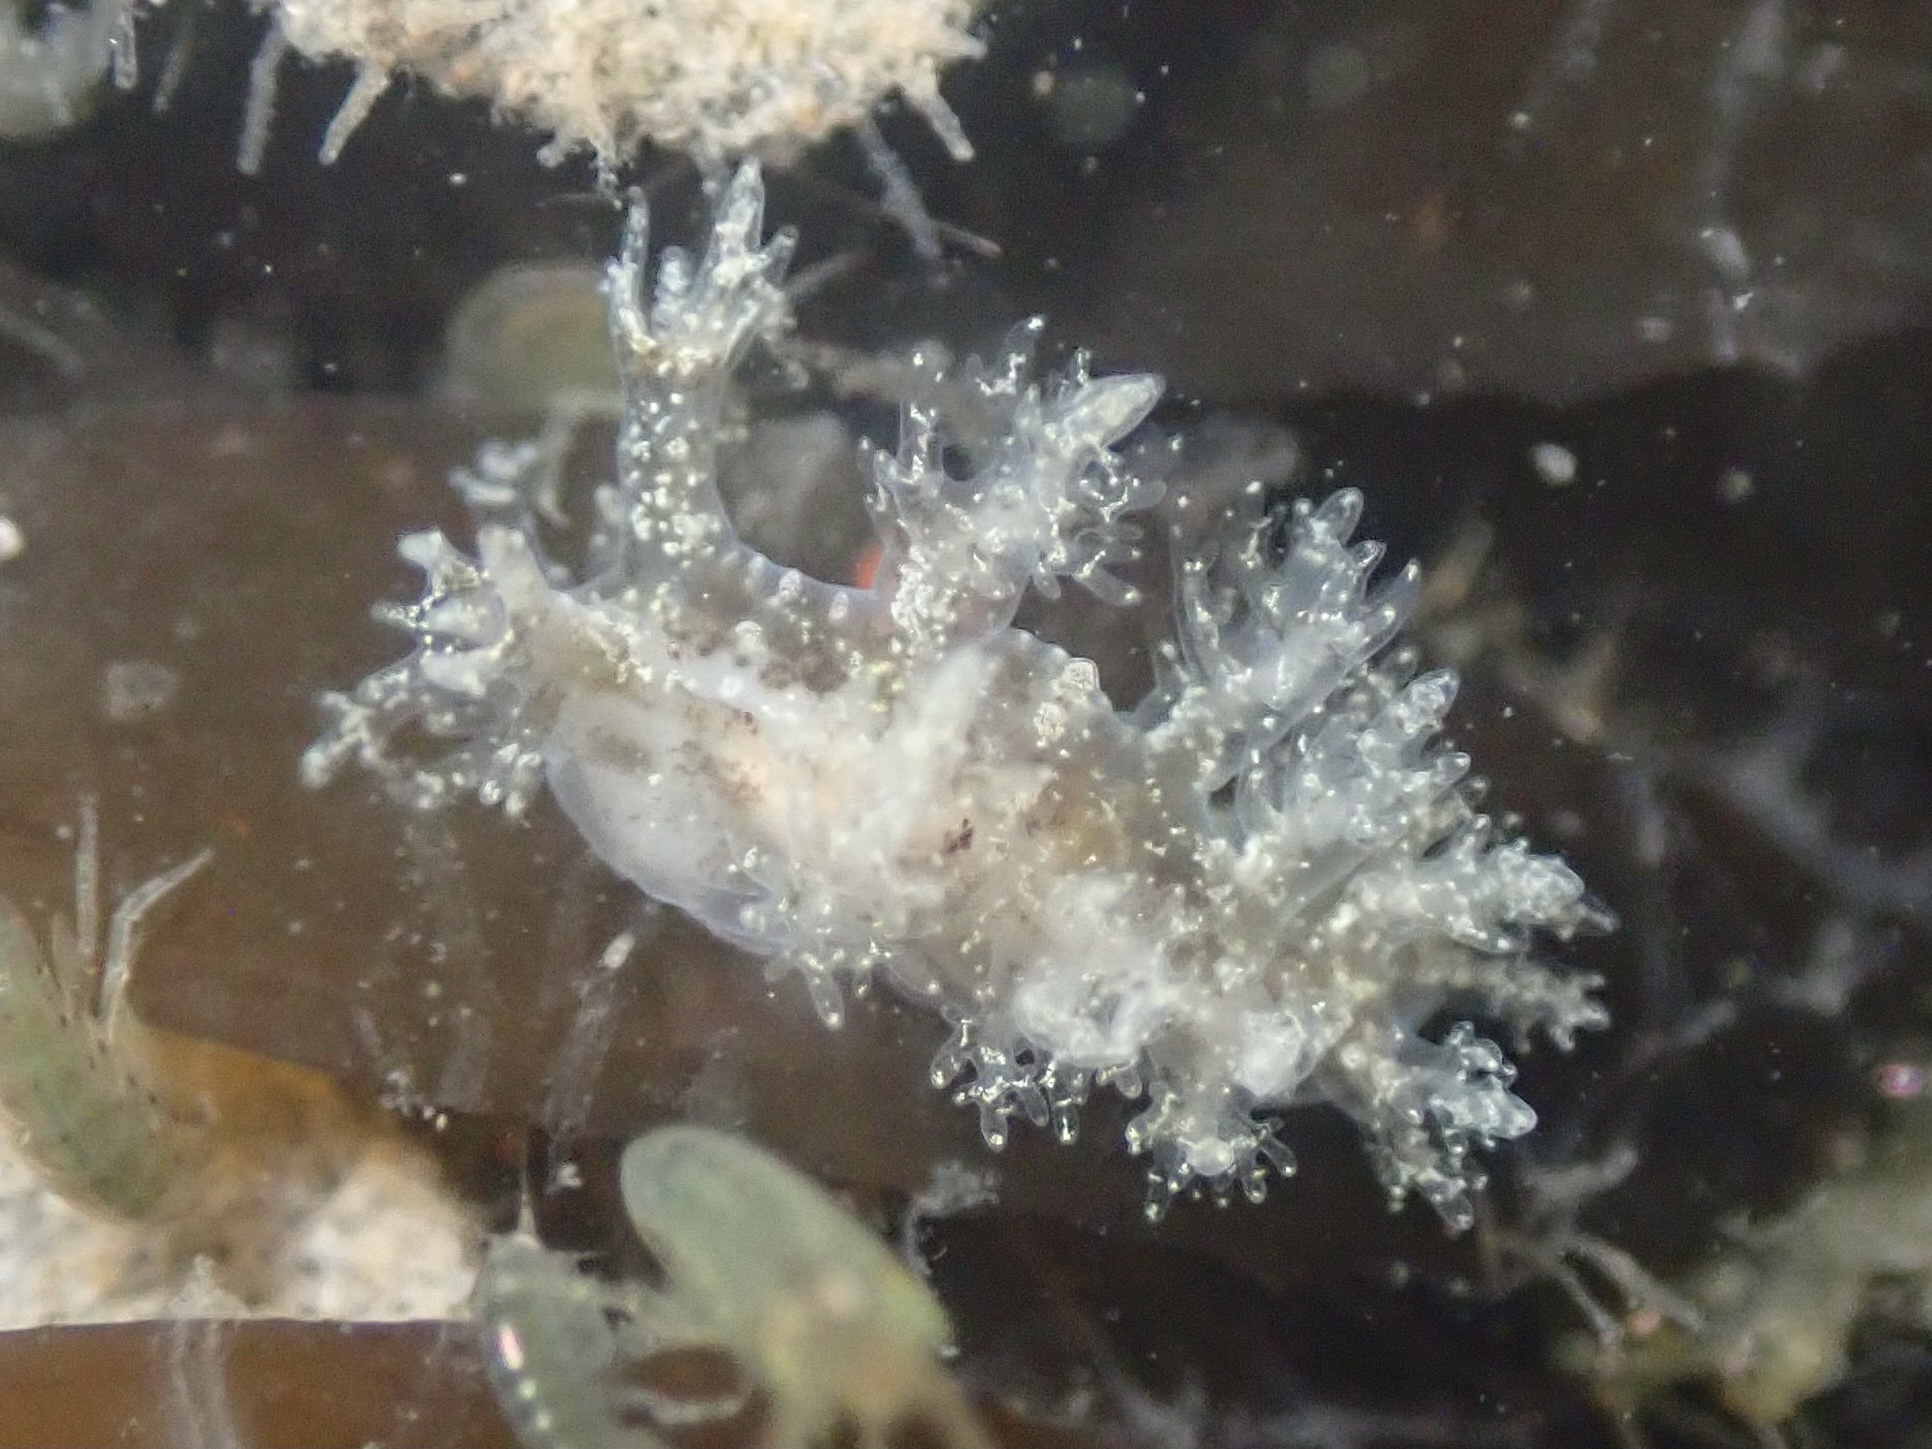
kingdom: Animalia
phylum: Mollusca
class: Gastropoda
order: Nudibranchia
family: Dendronotidae
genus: Dendronotus
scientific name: Dendronotus venustus
